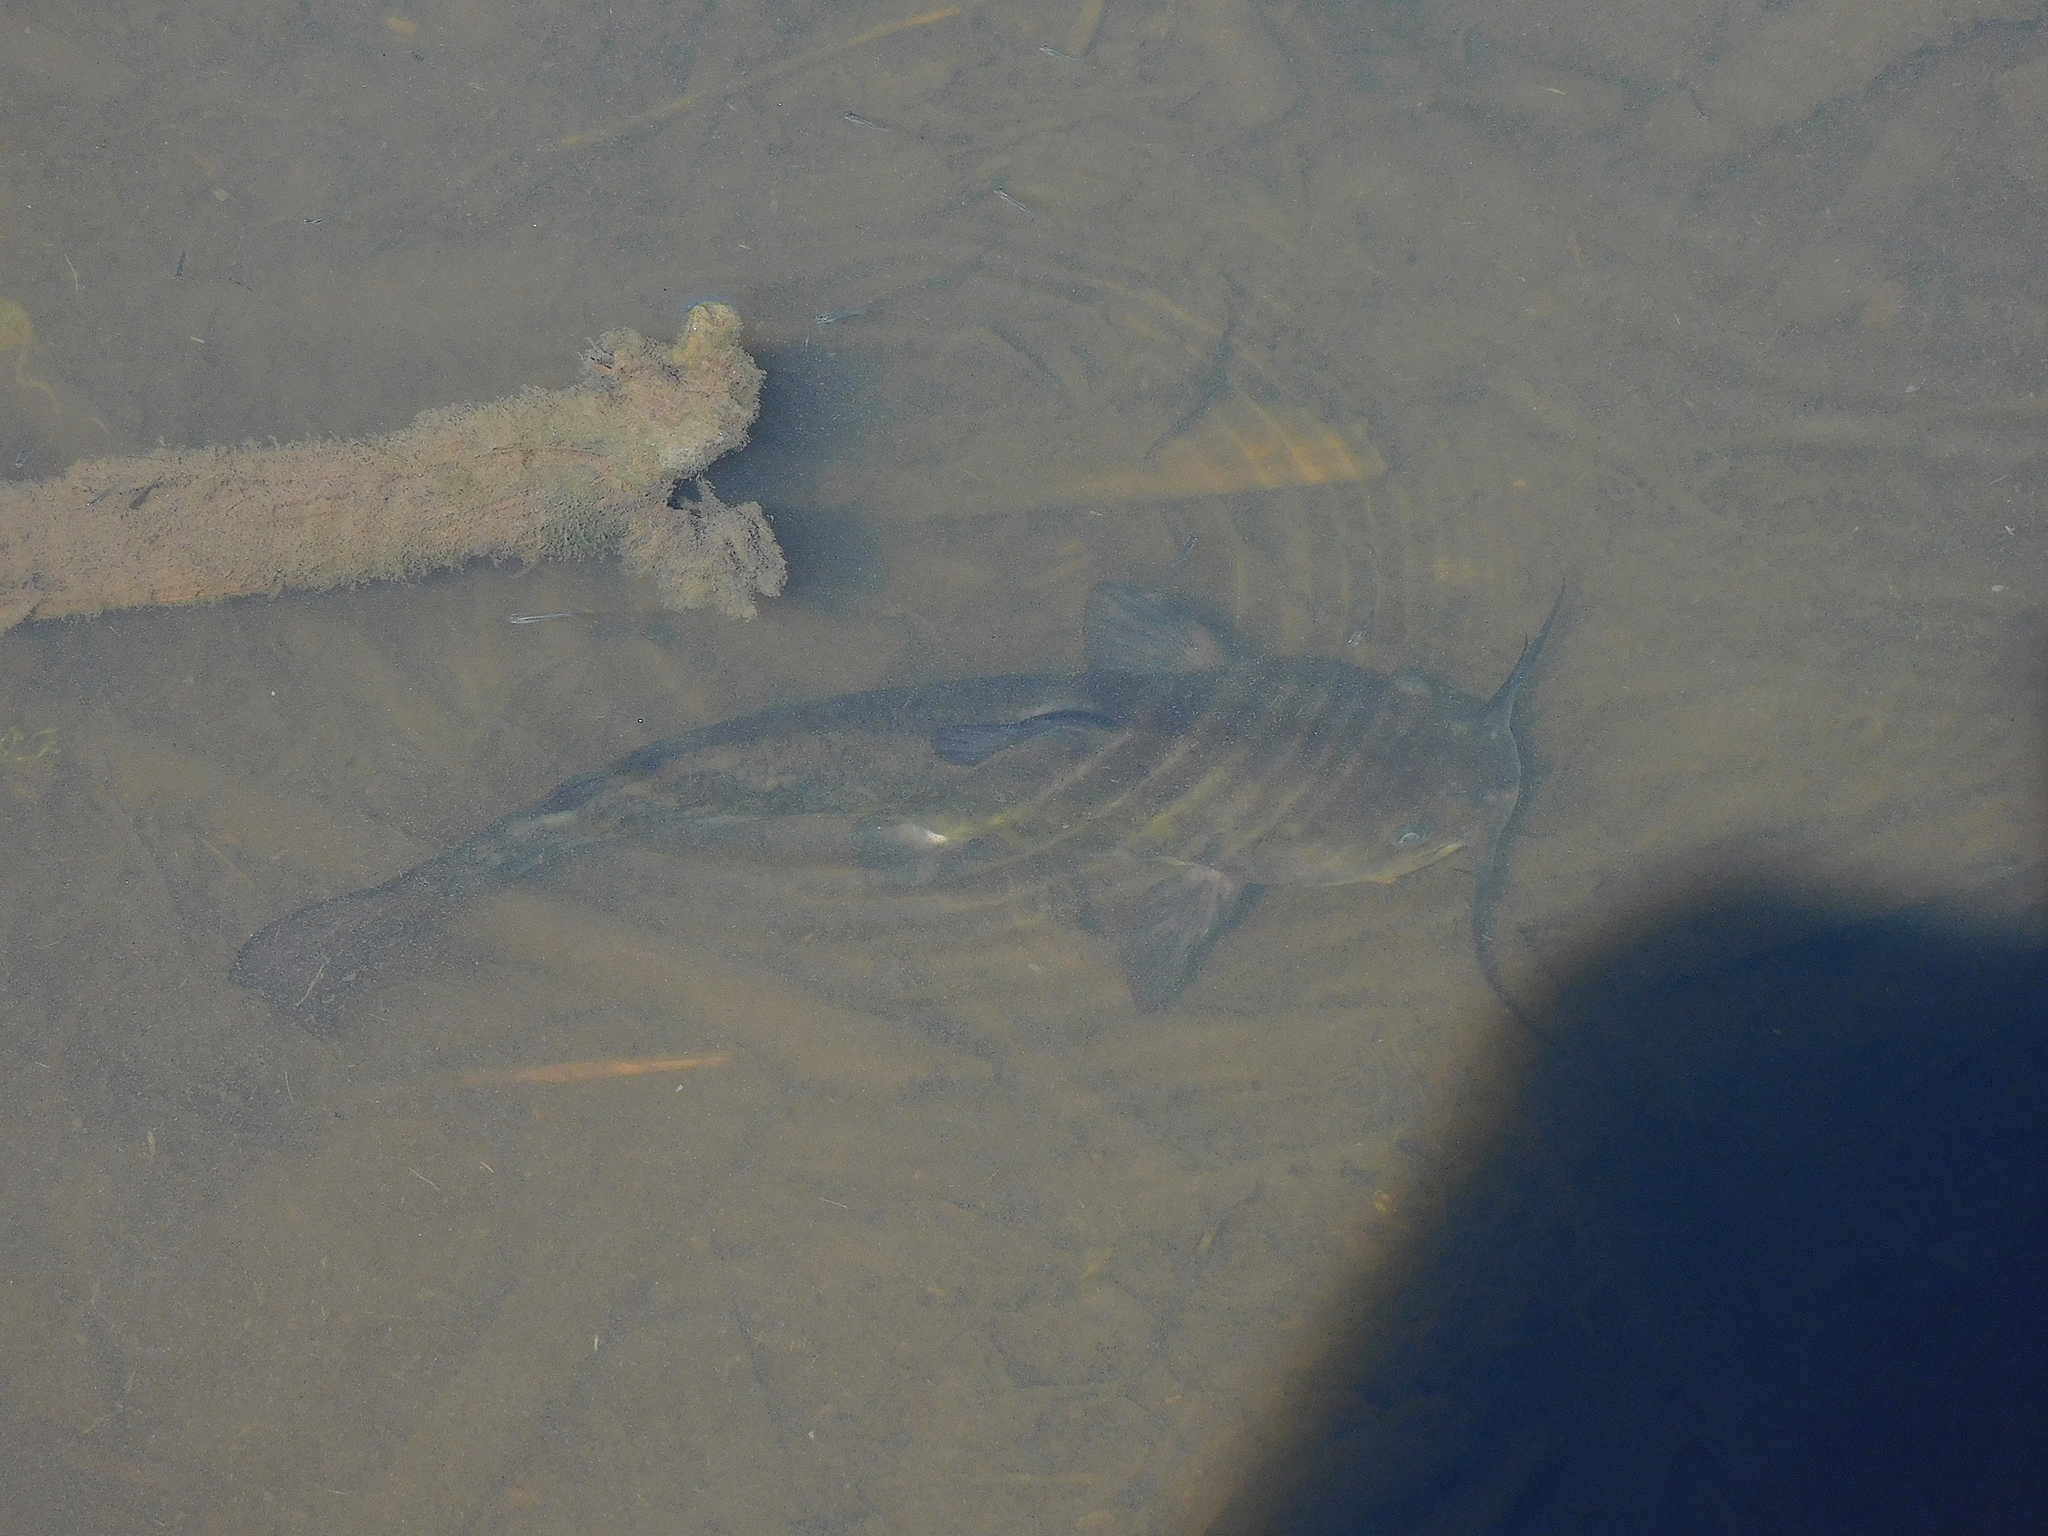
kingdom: Animalia
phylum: Chordata
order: Siluriformes
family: Ictaluridae
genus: Ameiurus
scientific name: Ameiurus nebulosus
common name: Brown bullhead
